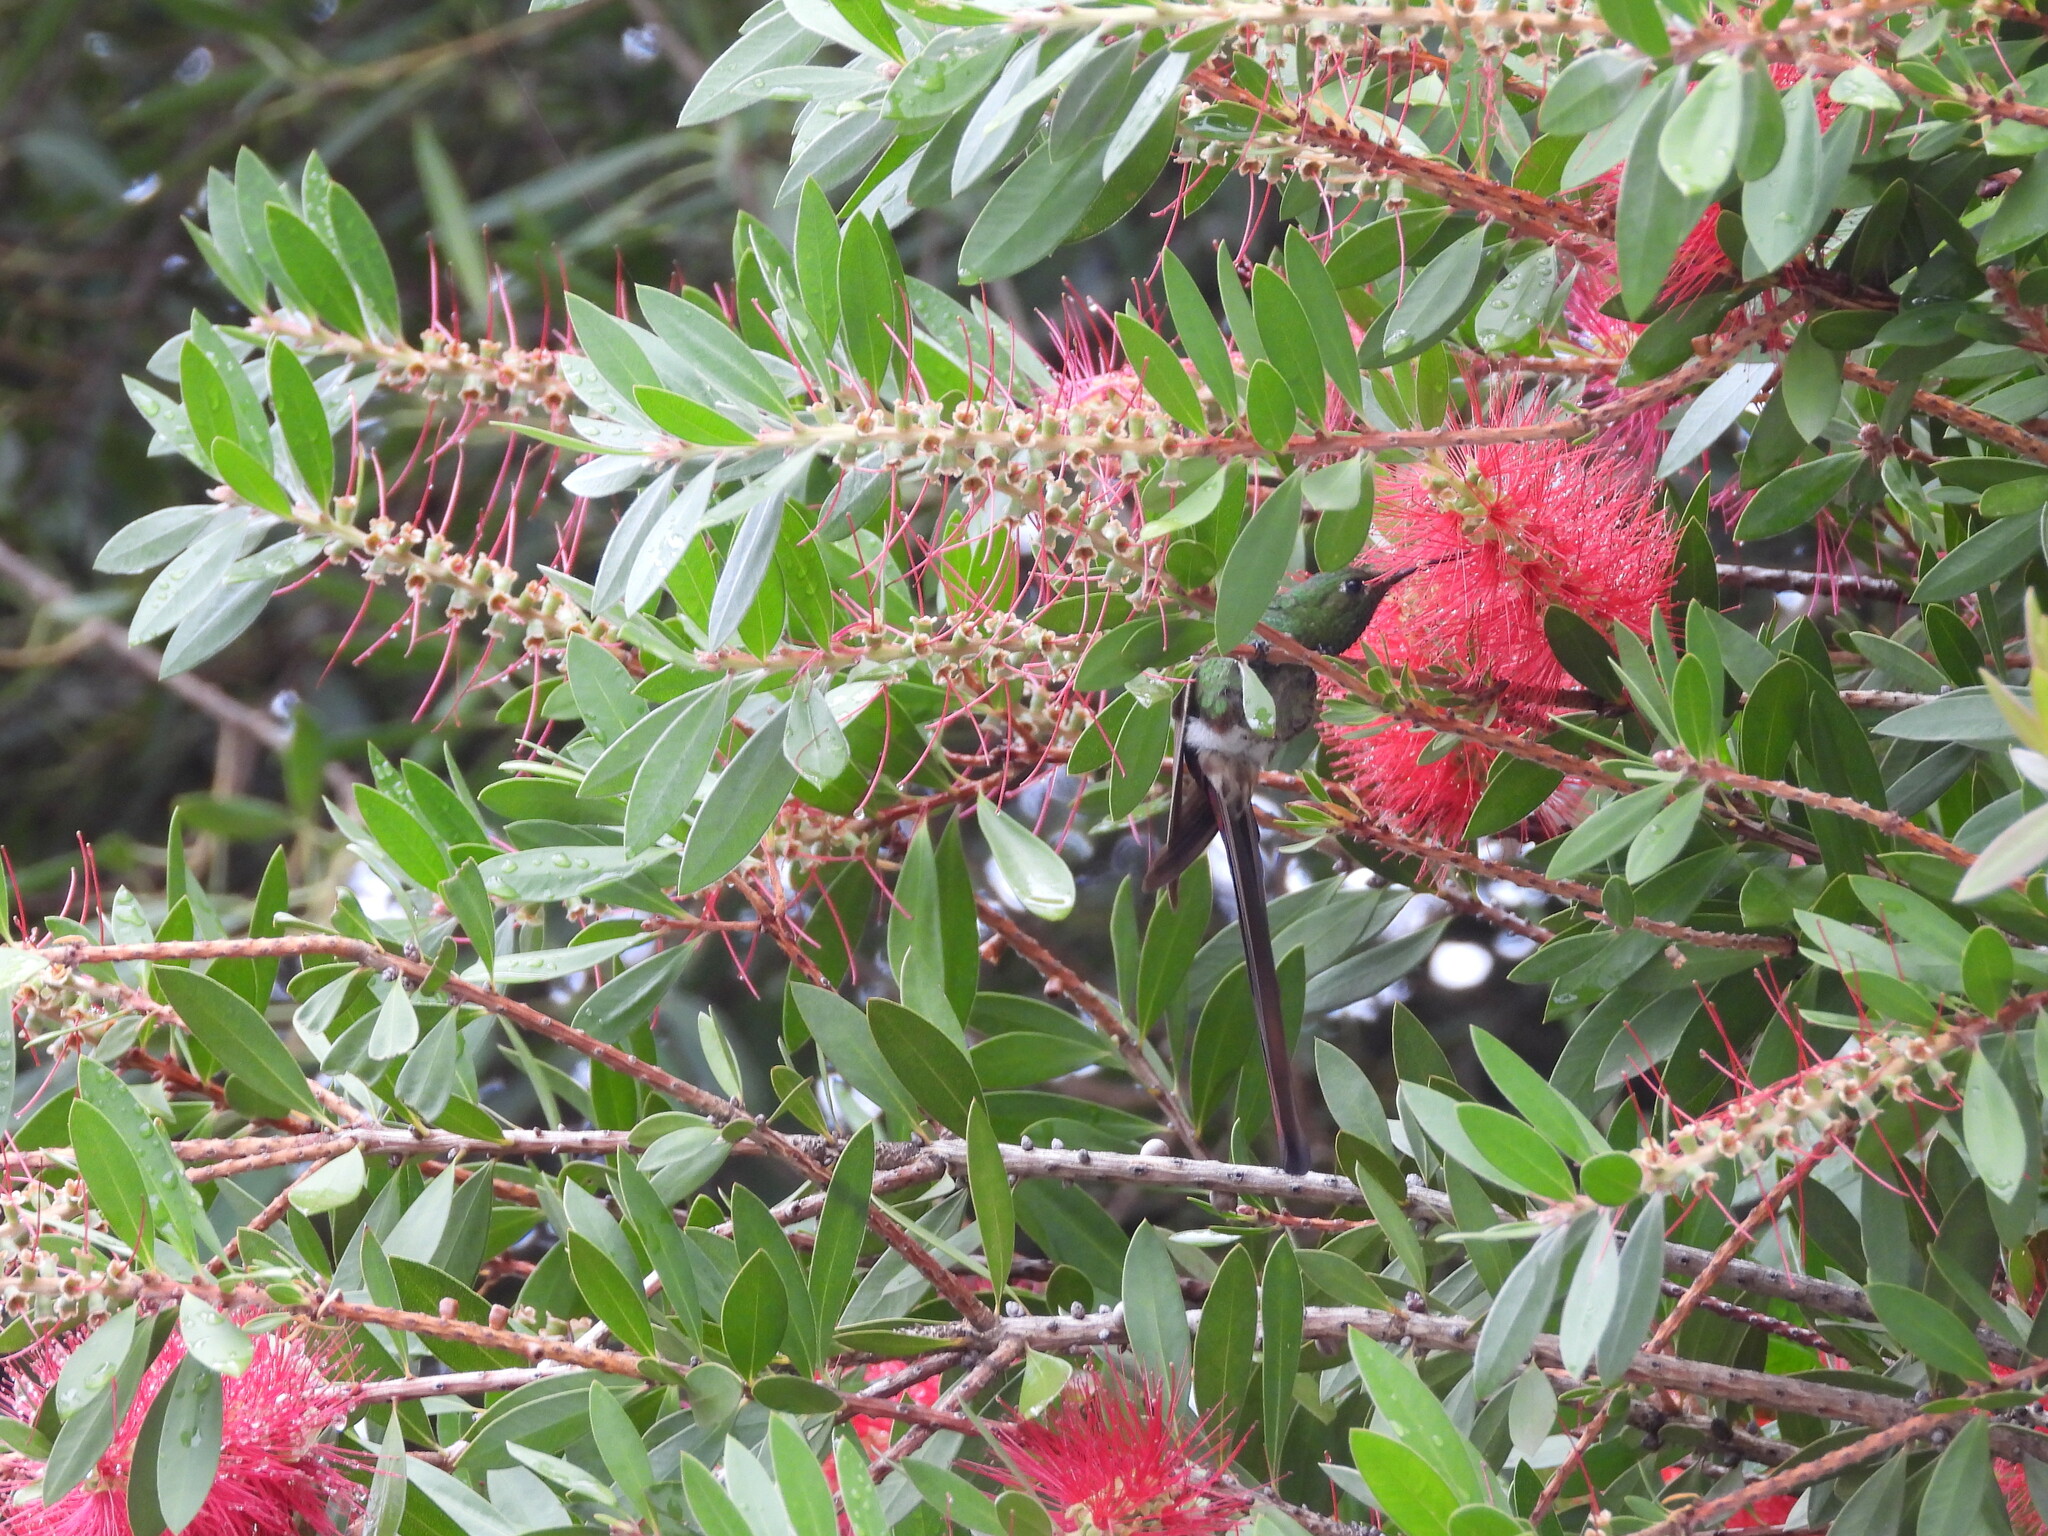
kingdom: Animalia
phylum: Chordata
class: Aves
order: Apodiformes
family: Trochilidae
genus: Sappho
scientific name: Sappho sparganurus
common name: Red-tailed comet
